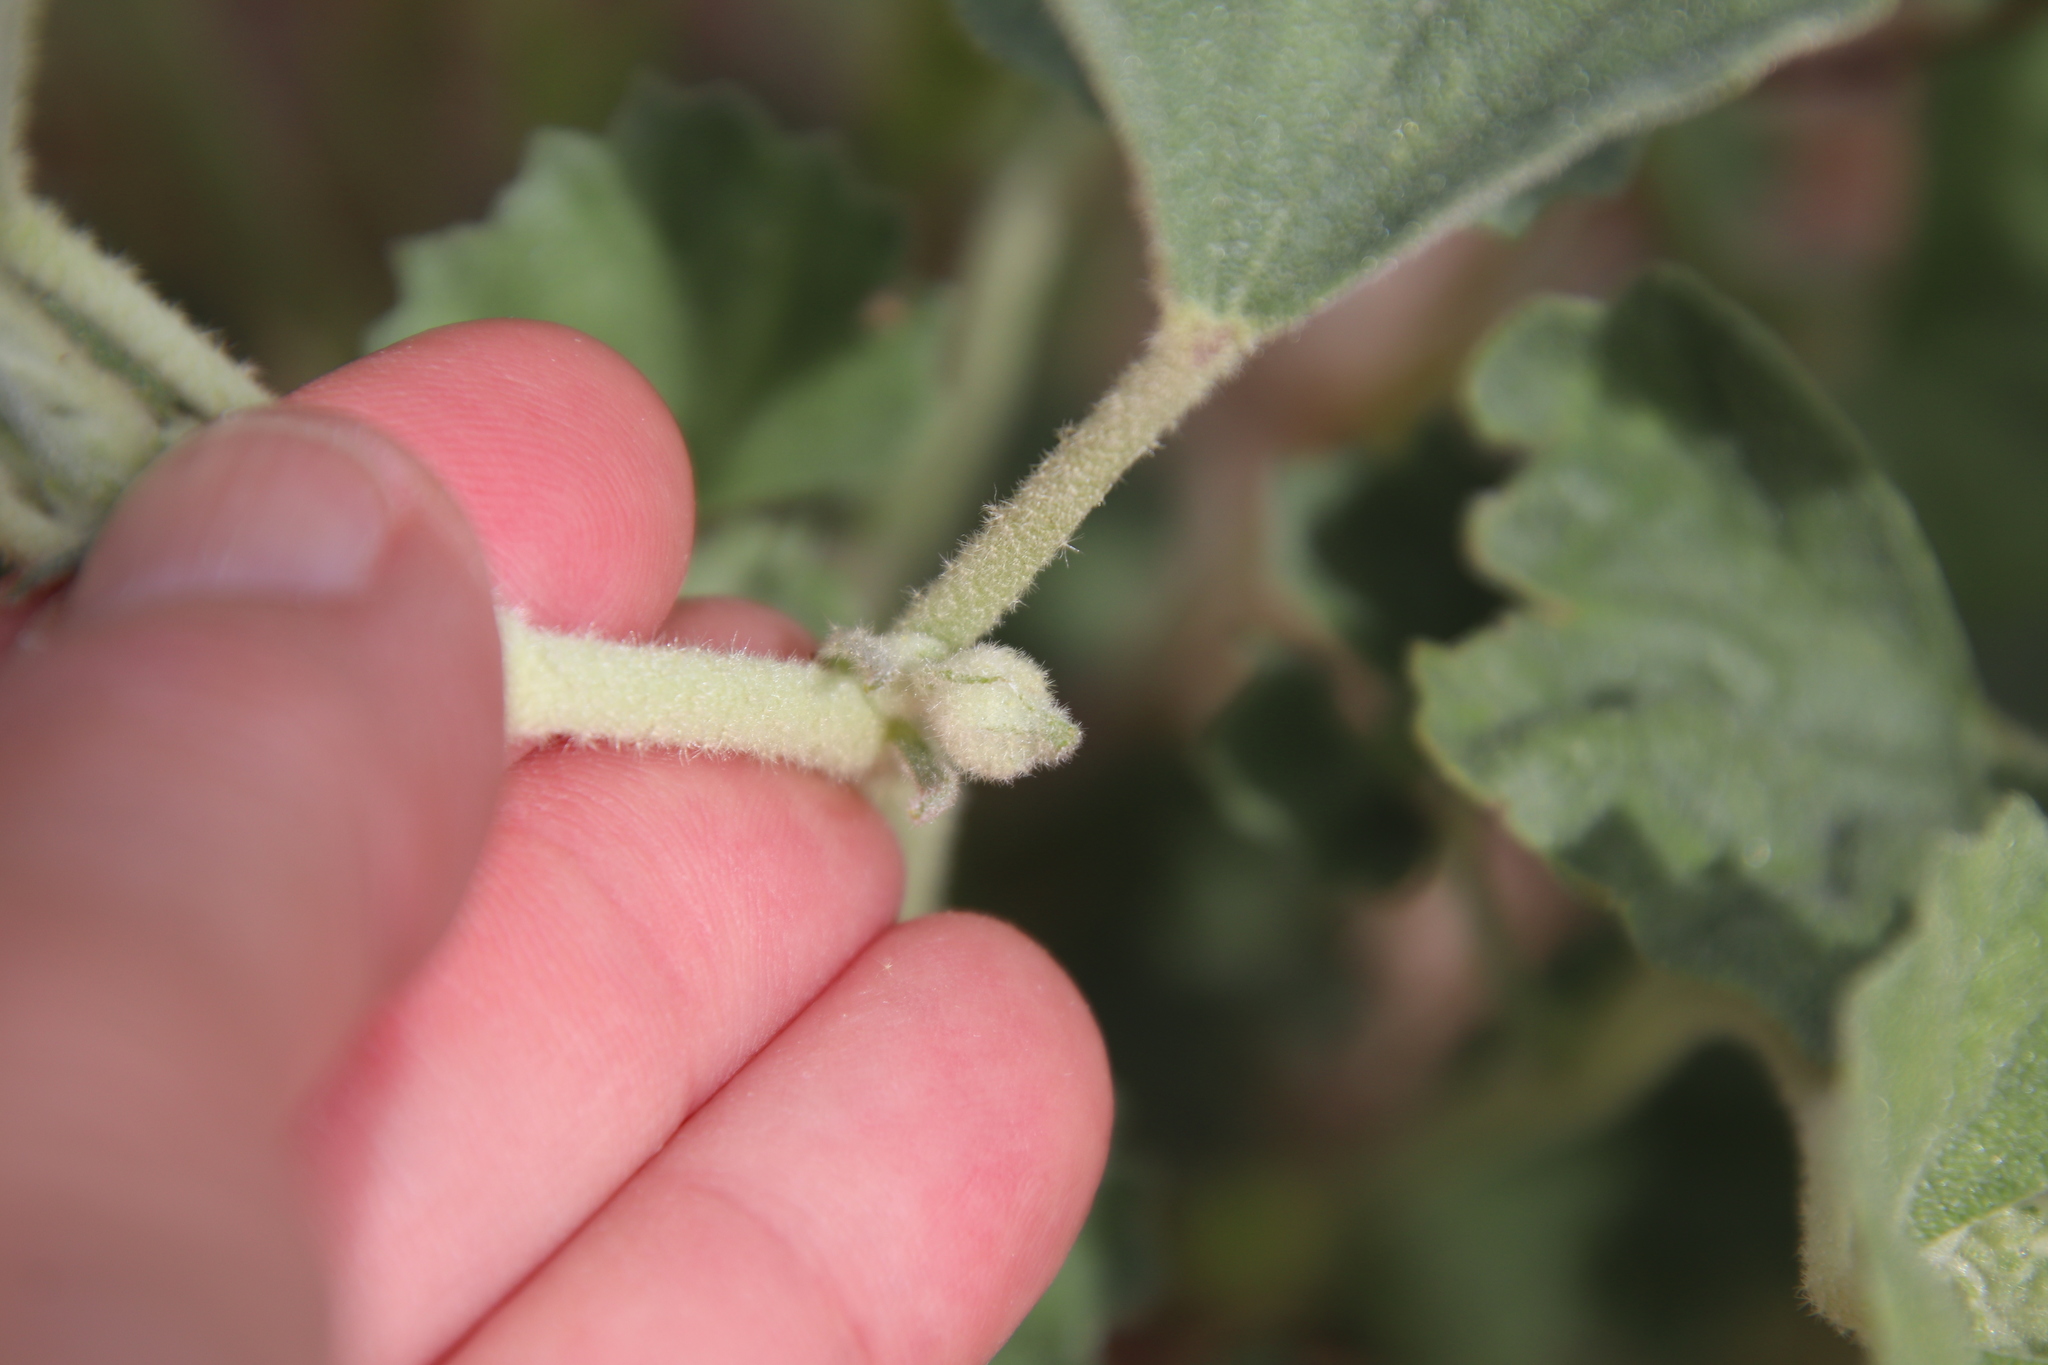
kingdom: Plantae
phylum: Tracheophyta
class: Magnoliopsida
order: Malvales
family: Malvaceae
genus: Malvella
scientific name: Malvella leprosa
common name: Alkali-mallow
